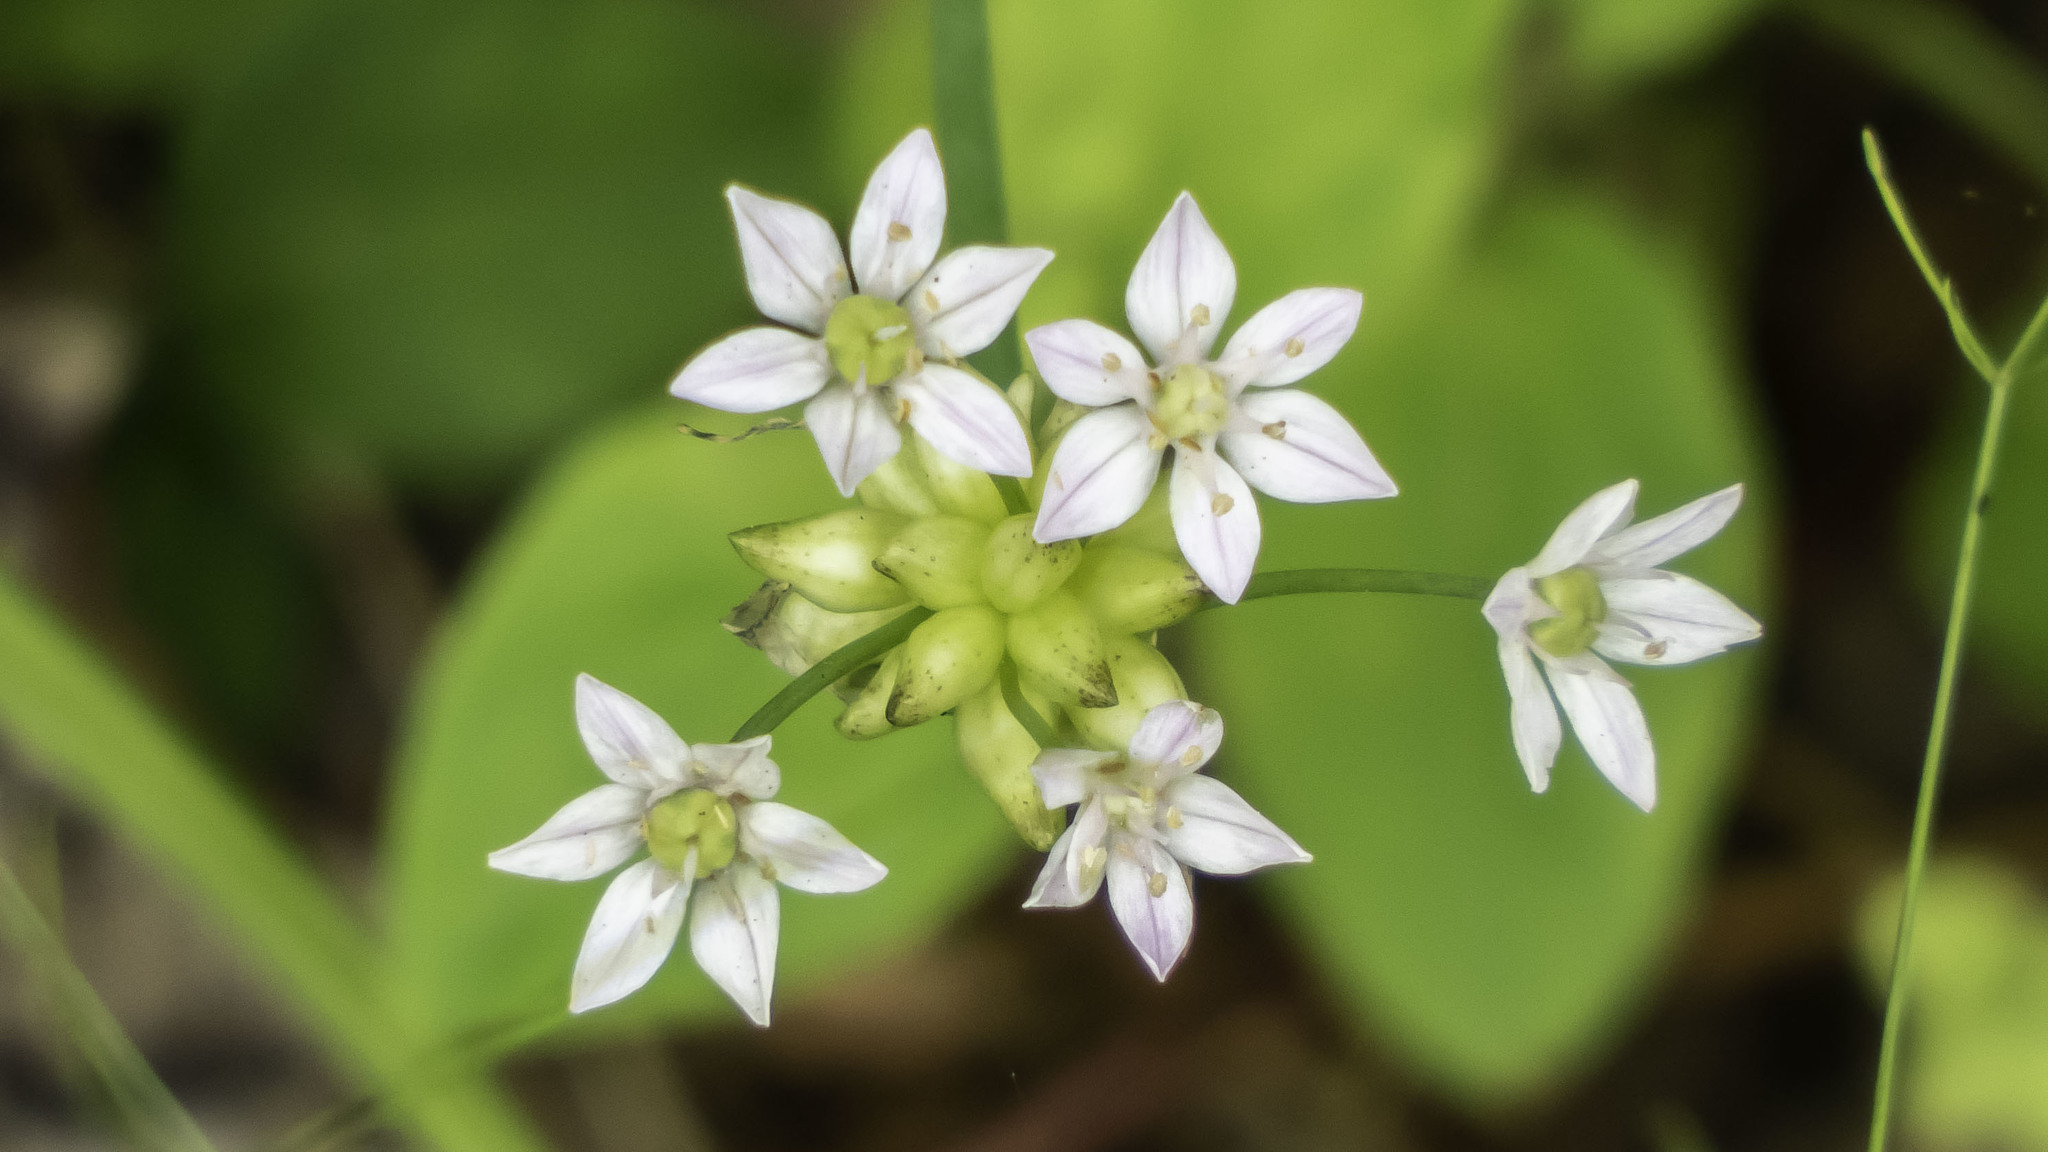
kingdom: Plantae
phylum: Tracheophyta
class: Liliopsida
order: Asparagales
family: Amaryllidaceae
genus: Allium
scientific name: Allium canadense
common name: Meadow garlic
